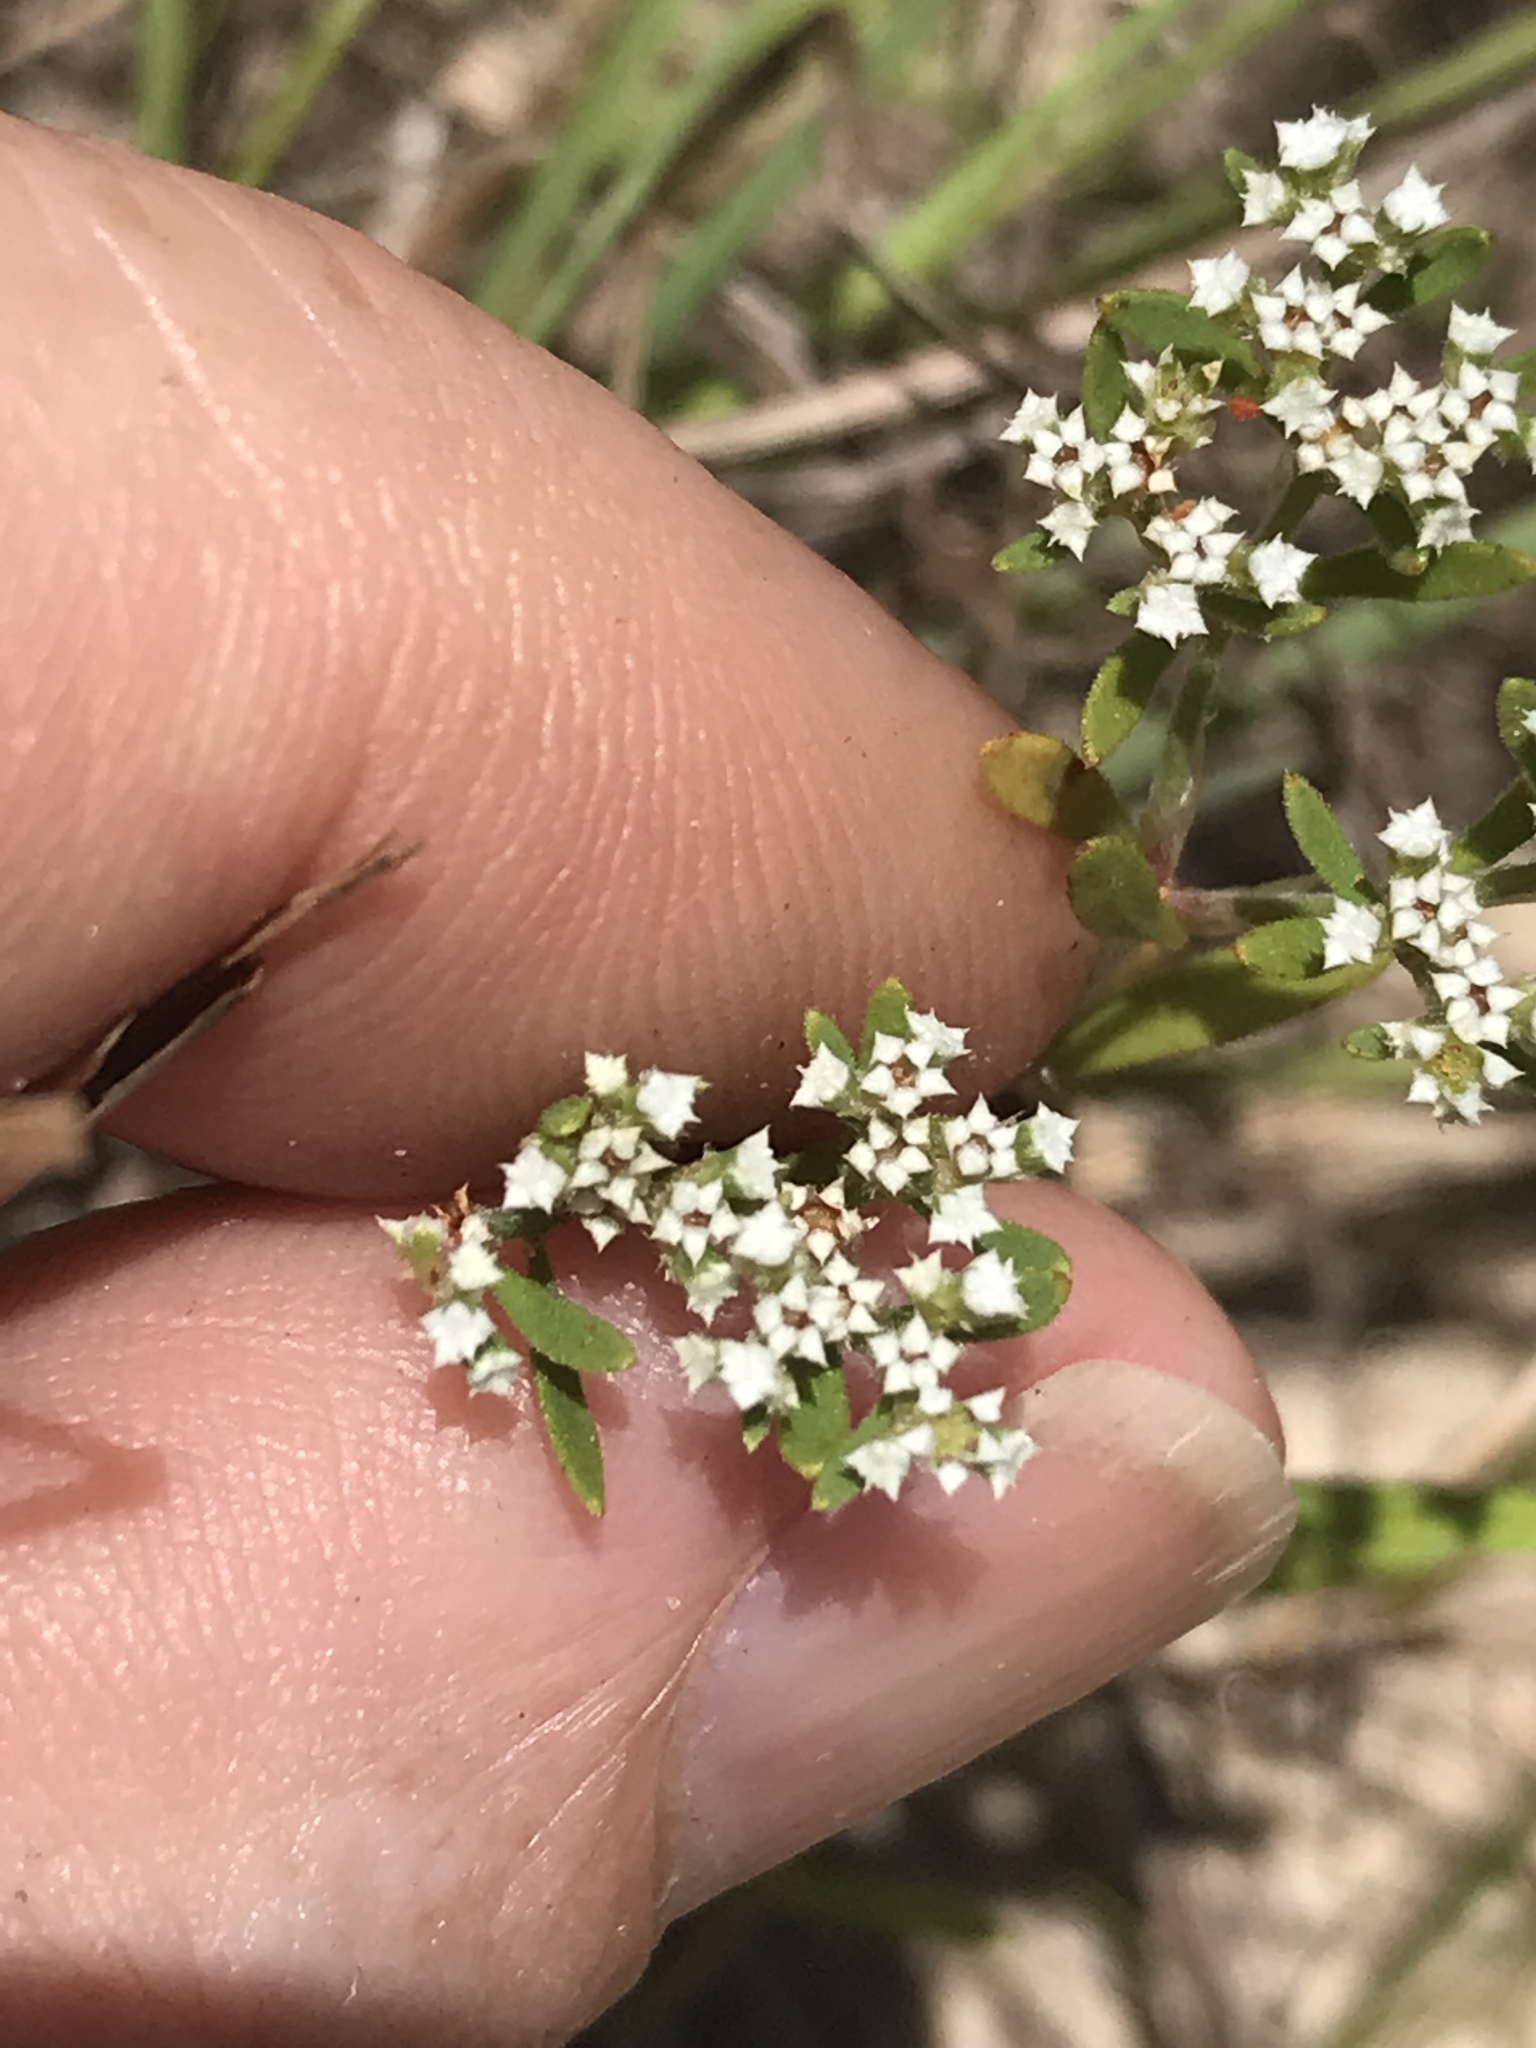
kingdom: Plantae
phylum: Tracheophyta
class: Magnoliopsida
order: Caryophyllales
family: Caryophyllaceae
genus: Paronychia
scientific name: Paronychia drummondii
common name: Drummond's nailwort
